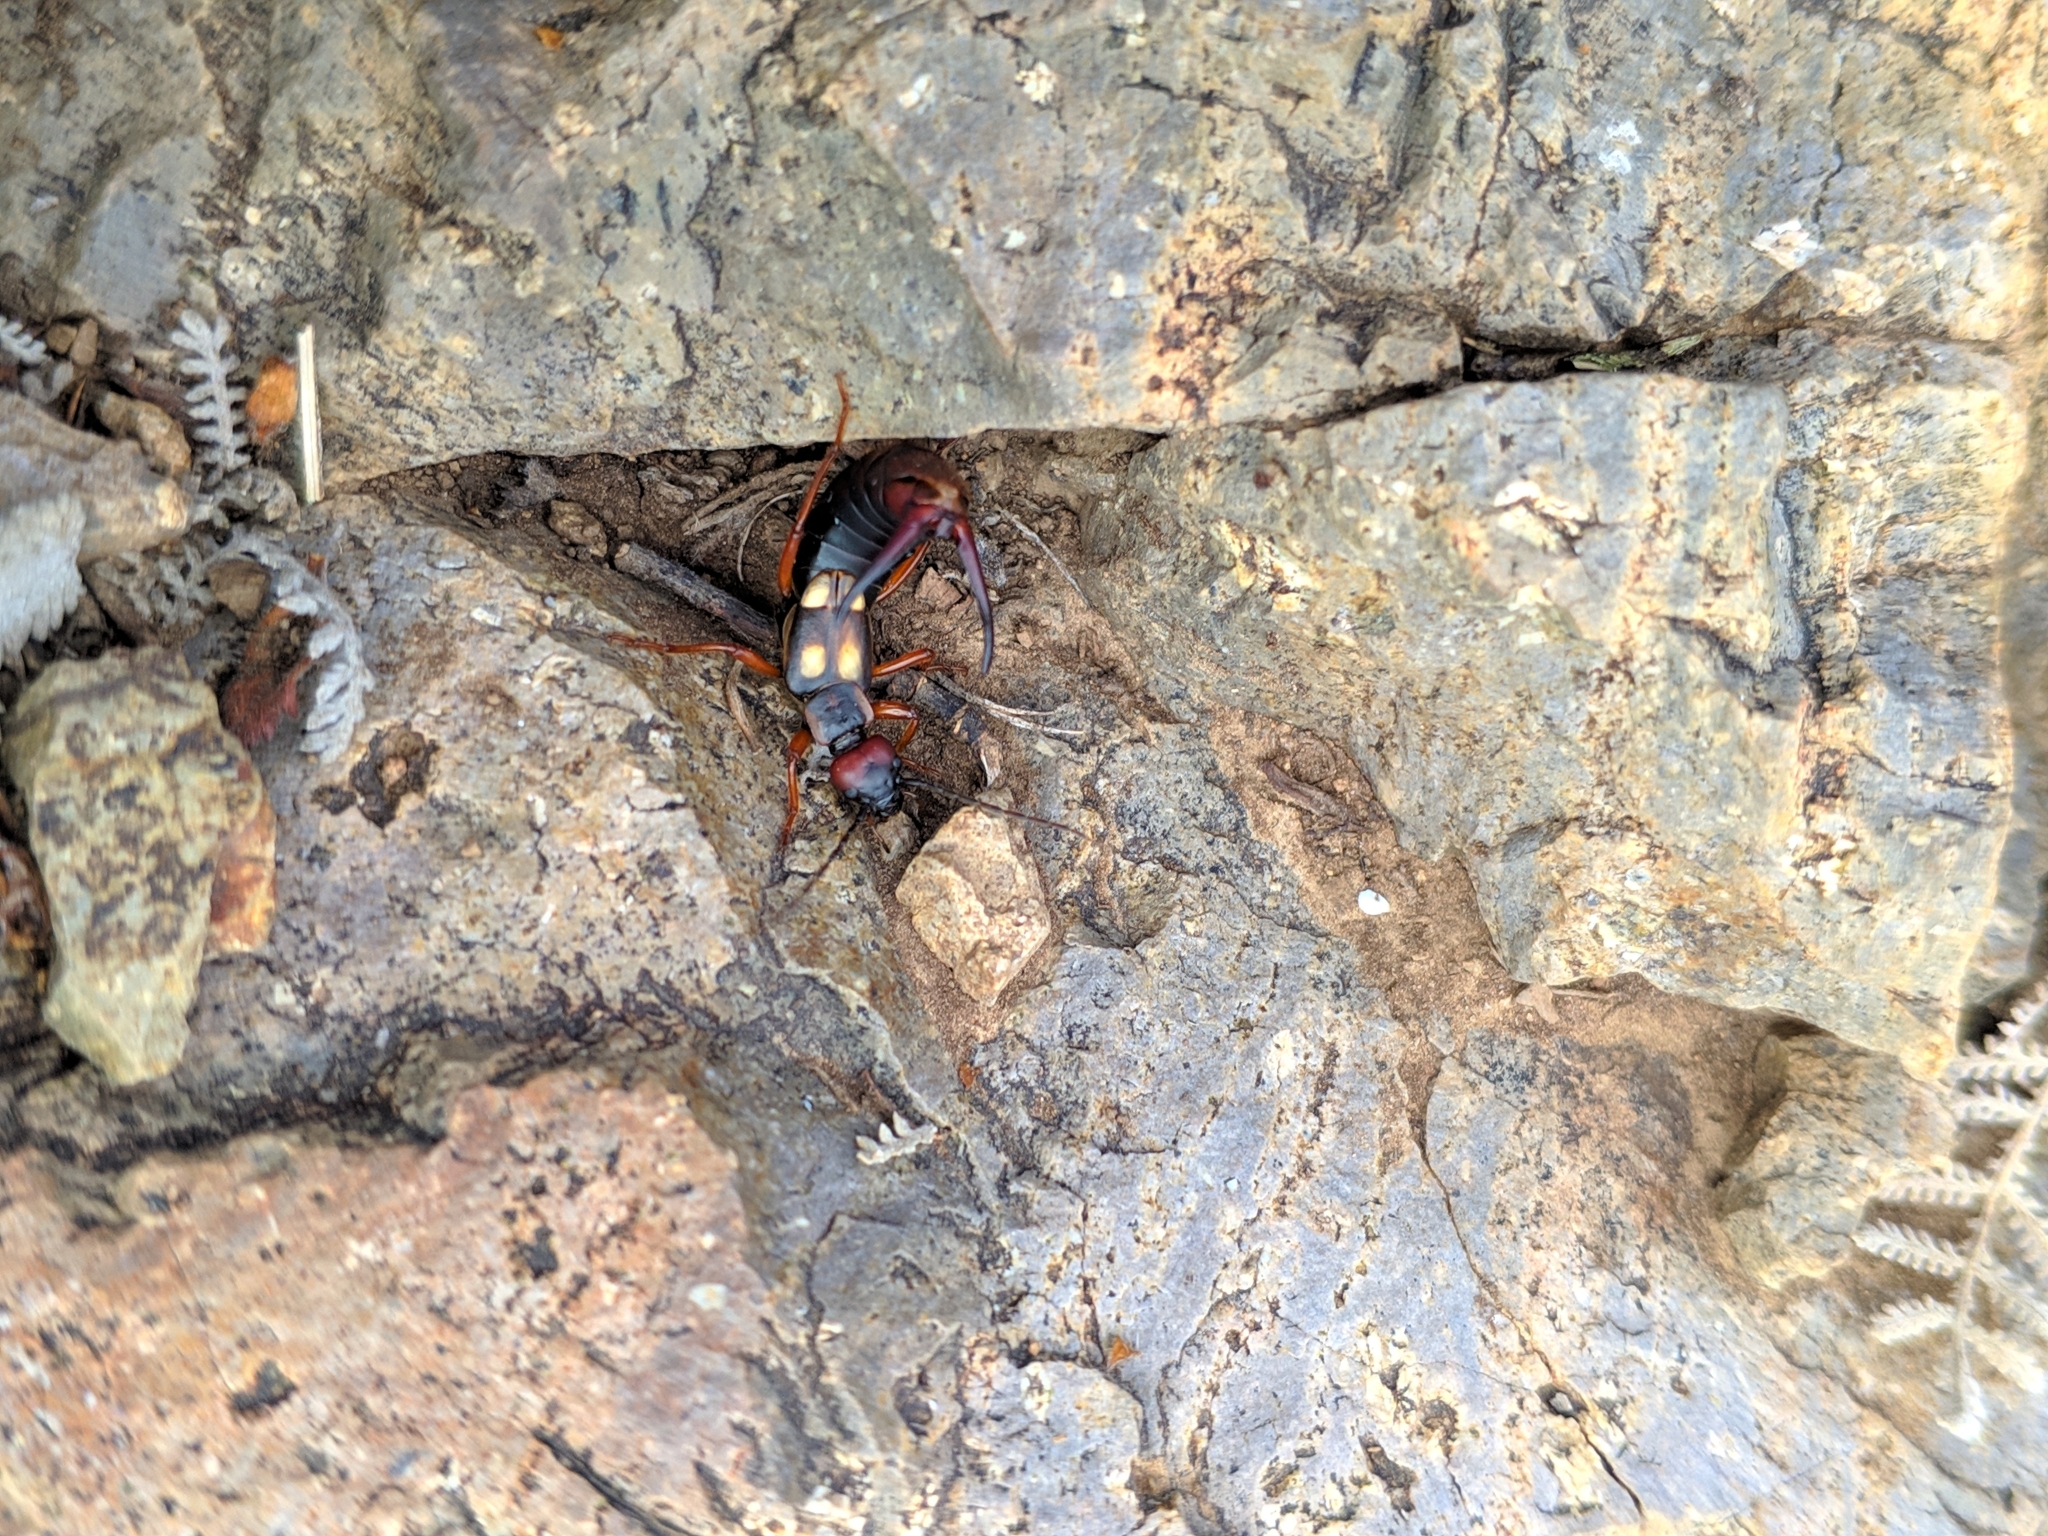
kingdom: Animalia
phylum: Arthropoda
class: Insecta
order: Dermaptera
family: Forficulidae
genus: Anechura
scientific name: Anechura bipunctata
